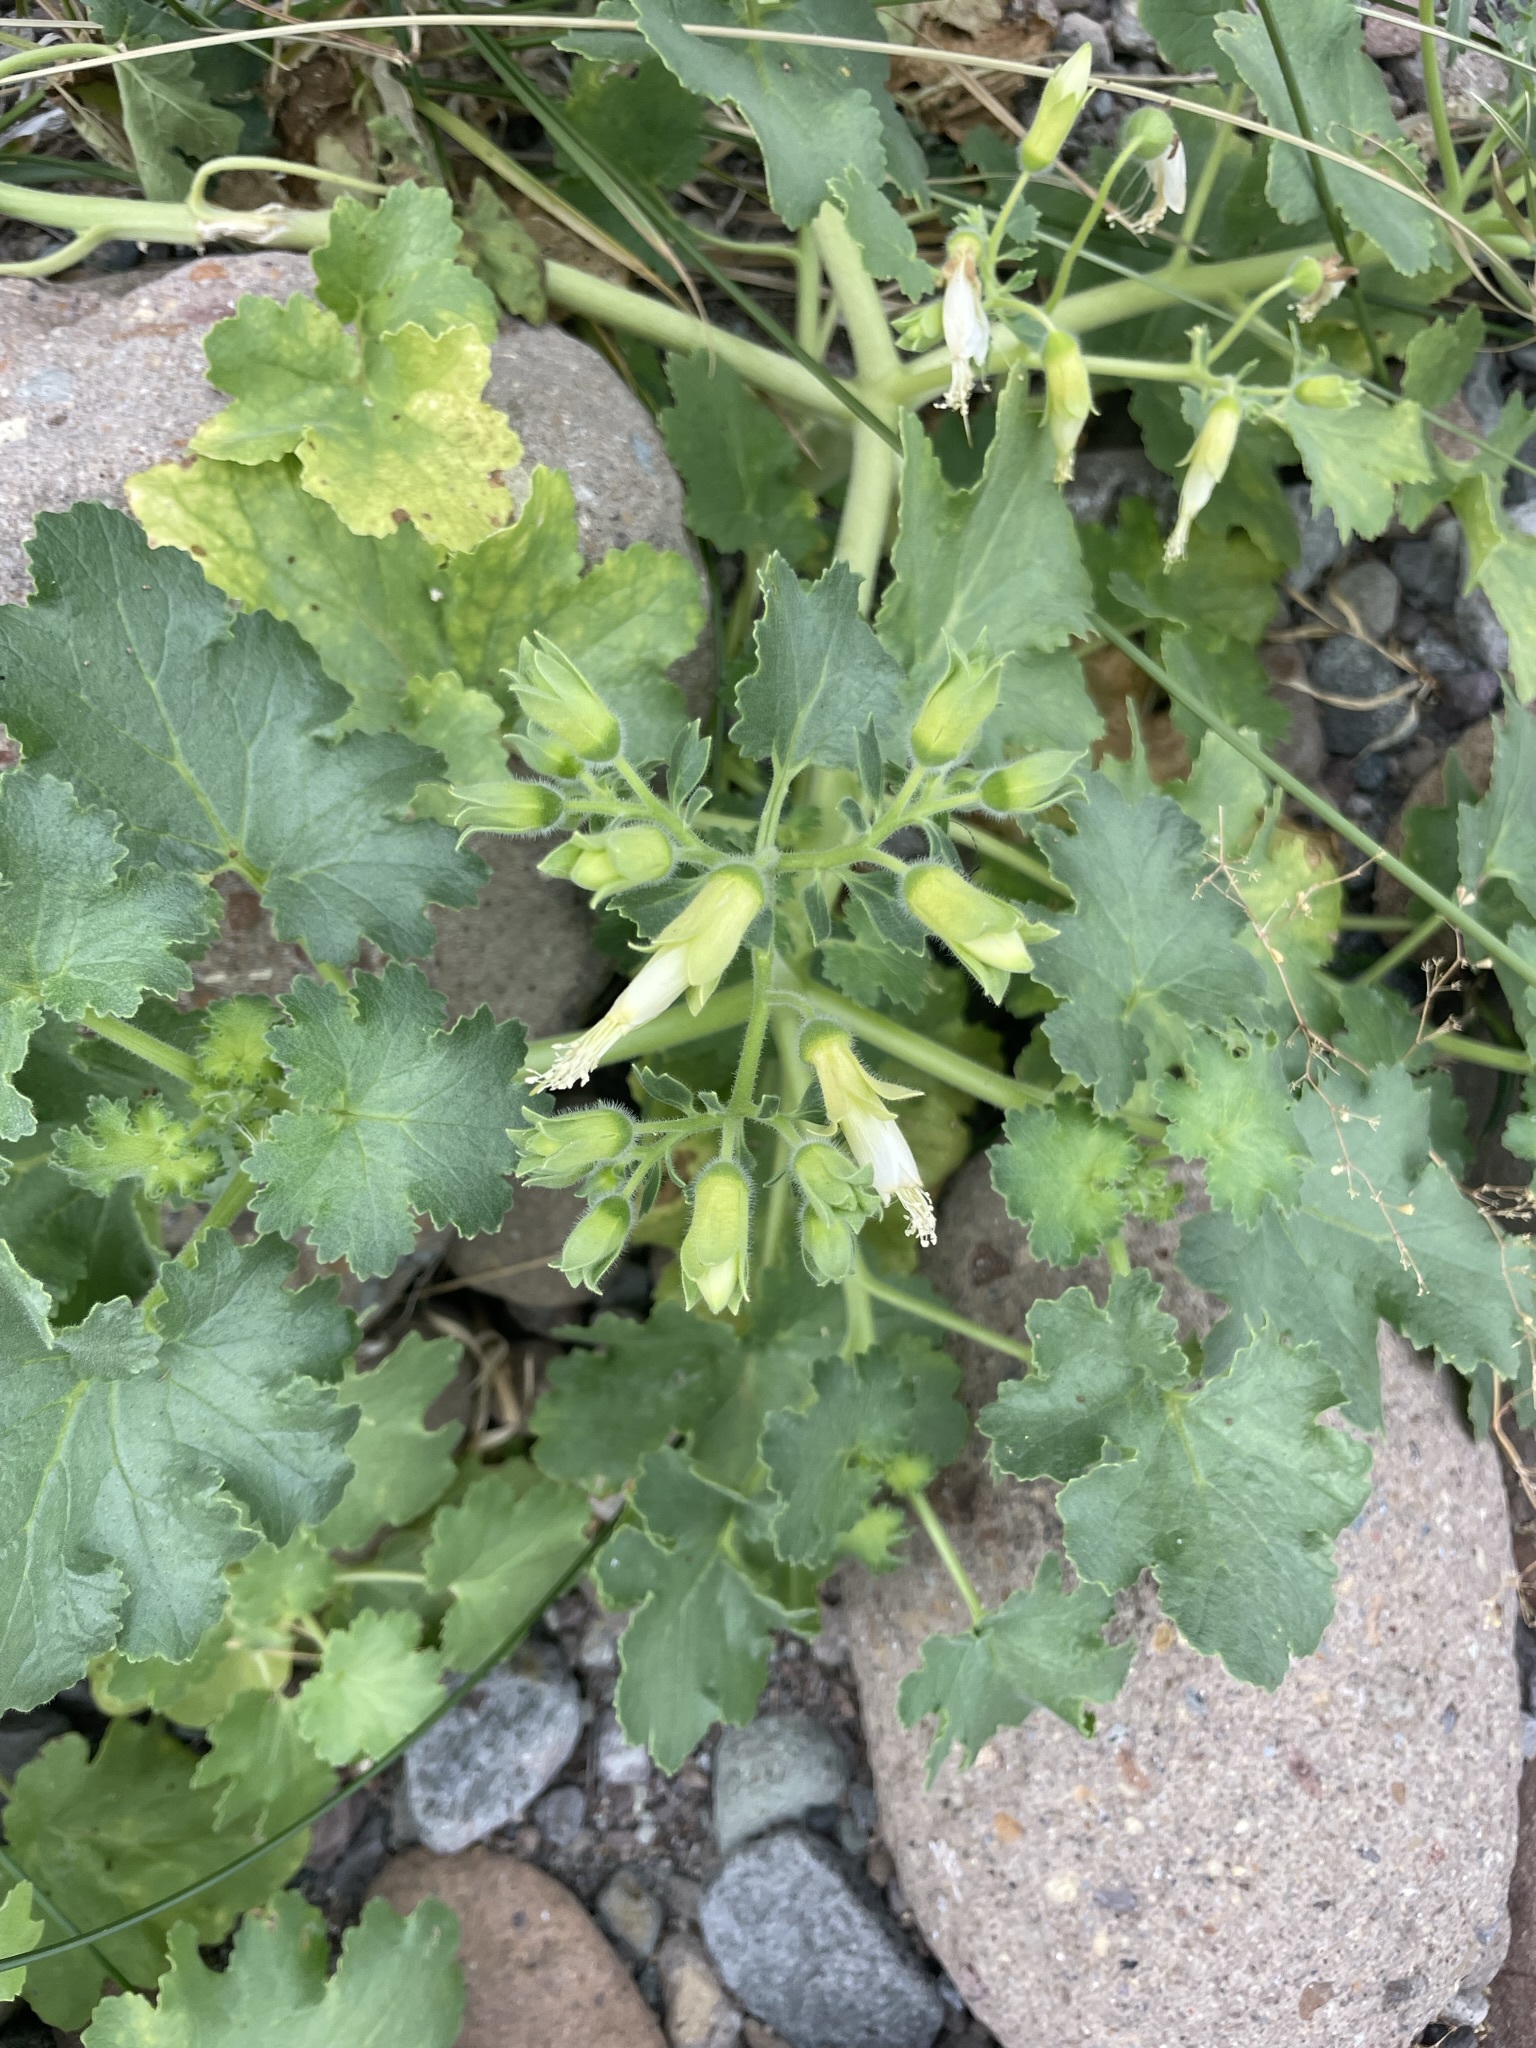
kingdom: Plantae
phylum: Tracheophyta
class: Magnoliopsida
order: Cornales
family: Loasaceae
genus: Eucnide
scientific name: Eucnide cordata
